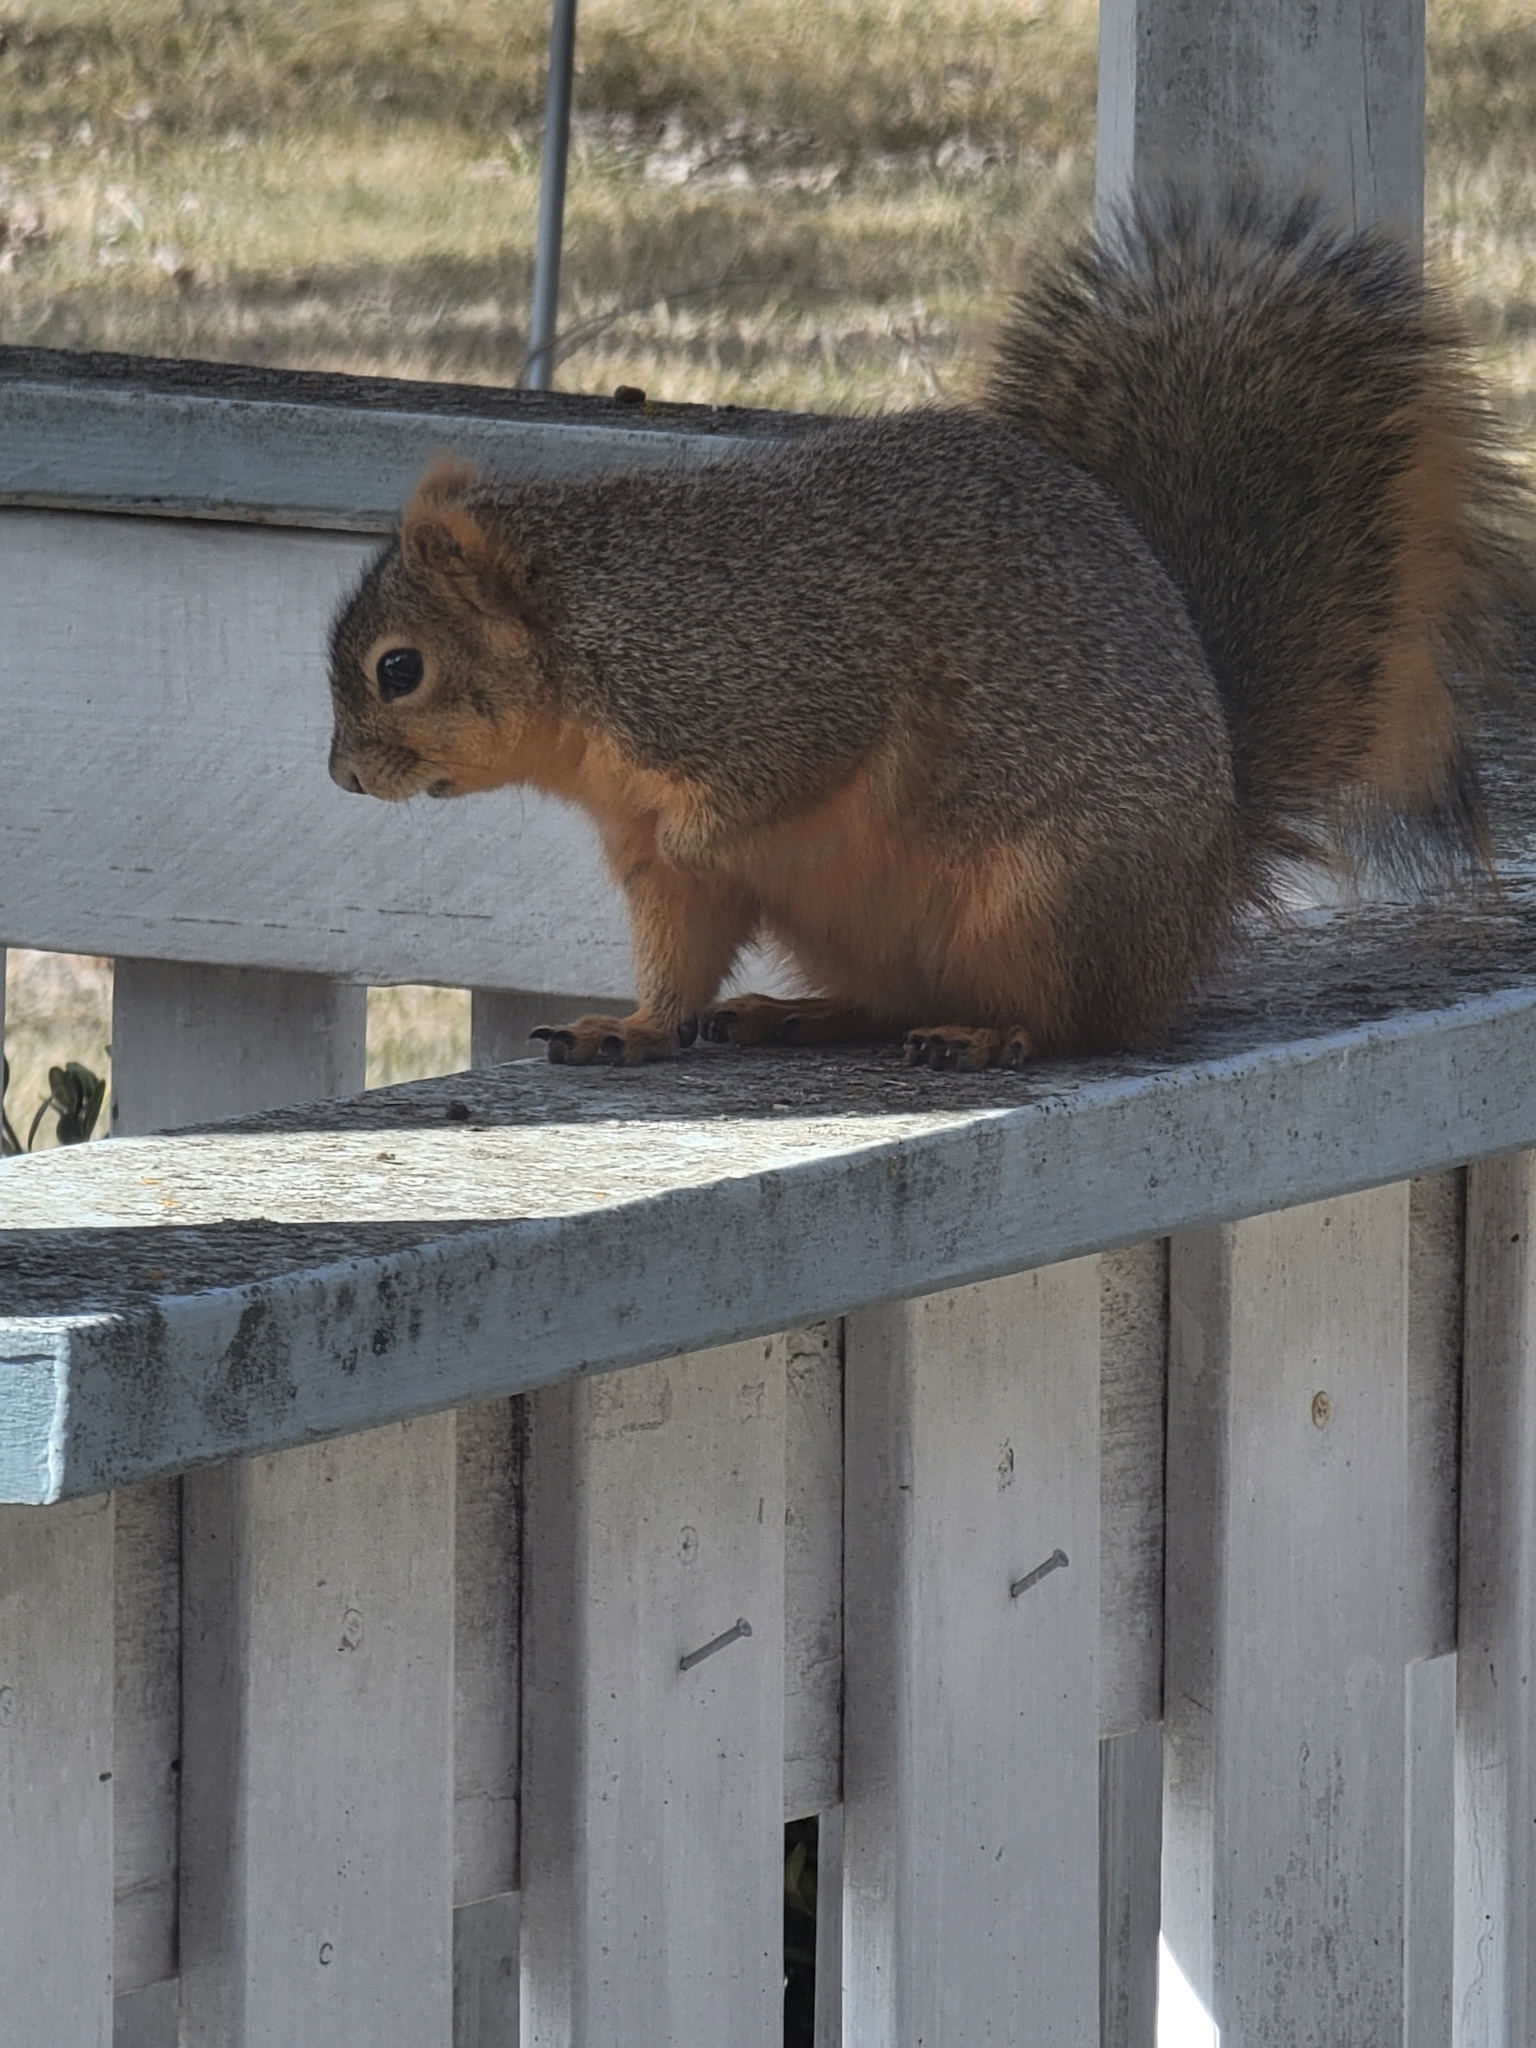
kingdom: Animalia
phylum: Chordata
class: Mammalia
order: Rodentia
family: Sciuridae
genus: Sciurus
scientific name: Sciurus niger
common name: Fox squirrel
